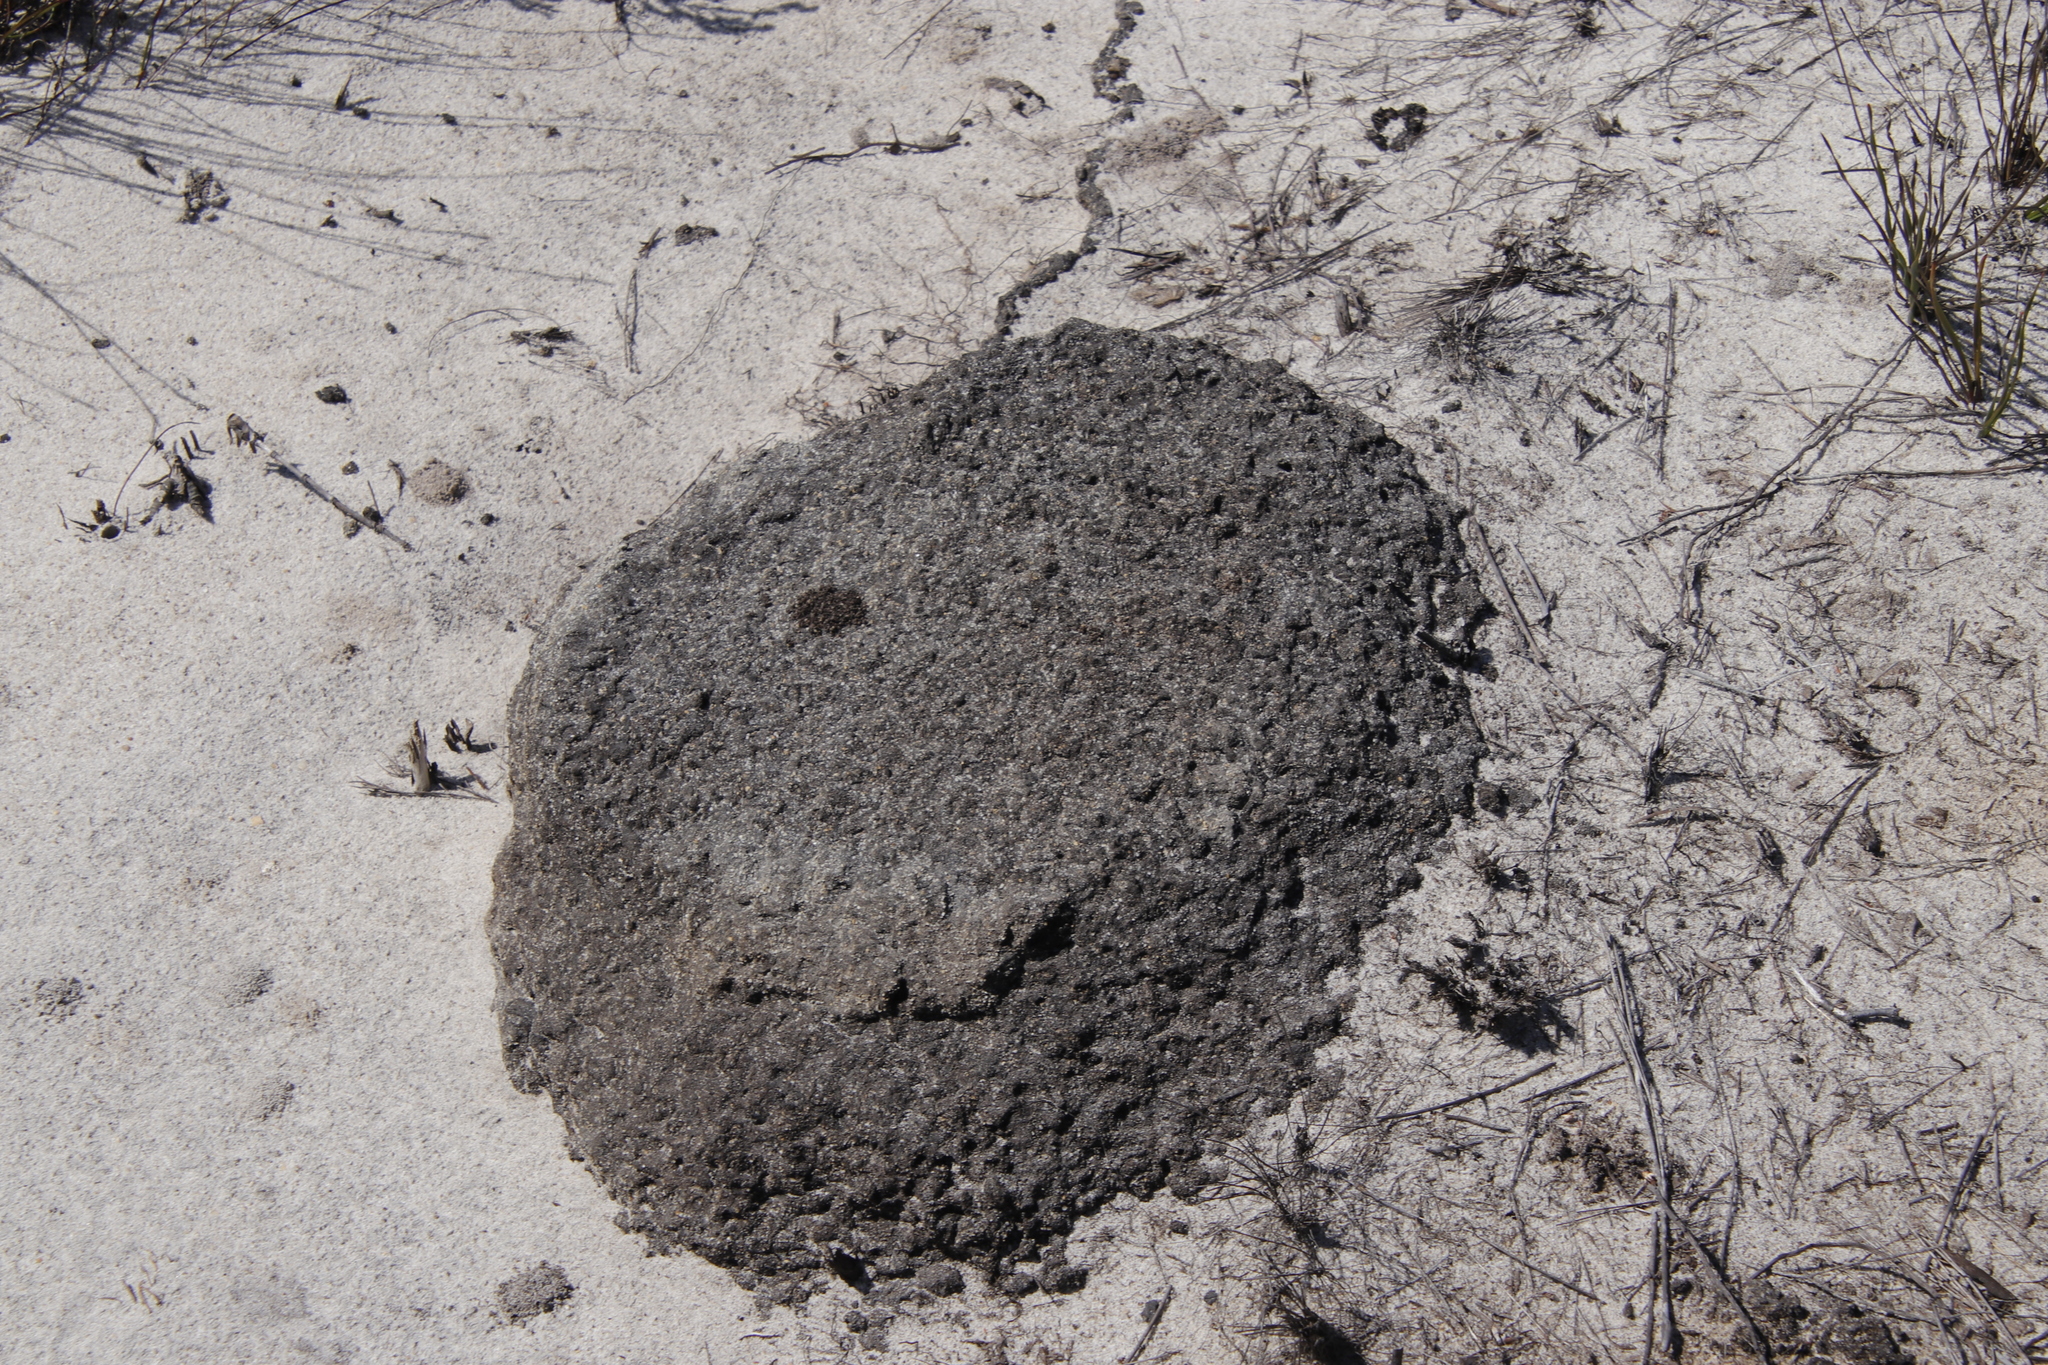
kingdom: Animalia
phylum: Arthropoda
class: Insecta
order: Blattodea
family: Termitidae
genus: Amitermes
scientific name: Amitermes hastatus
